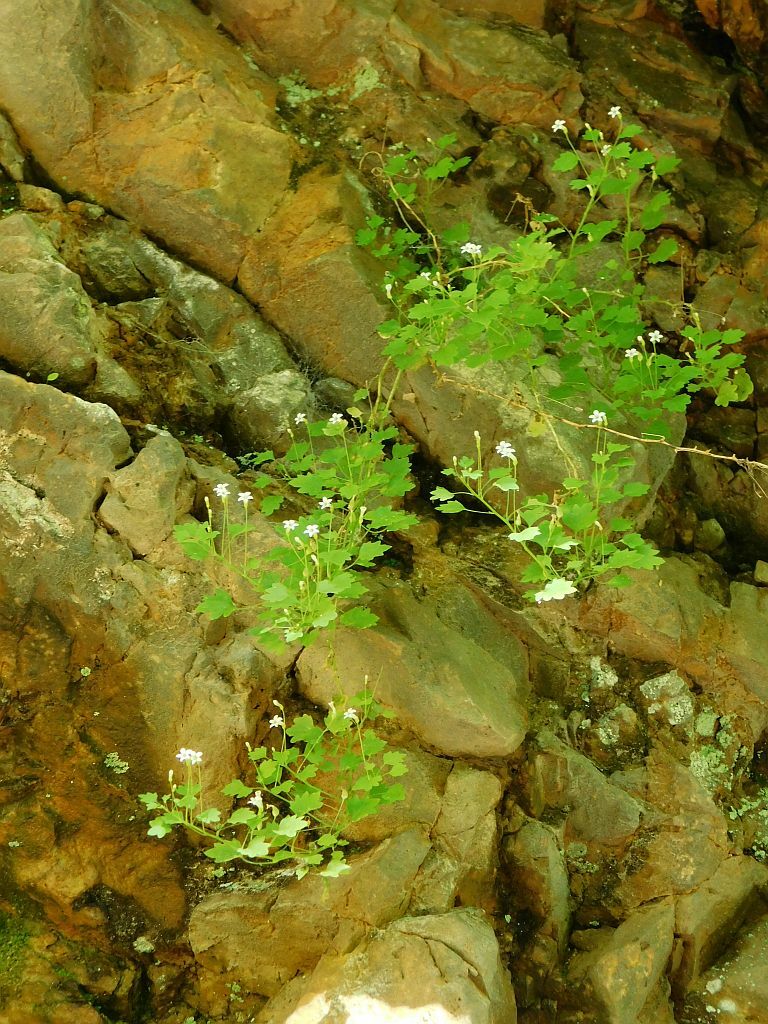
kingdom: Plantae
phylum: Tracheophyta
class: Magnoliopsida
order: Asterales
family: Campanulaceae
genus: Wimmerella
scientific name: Wimmerella pygmaea
